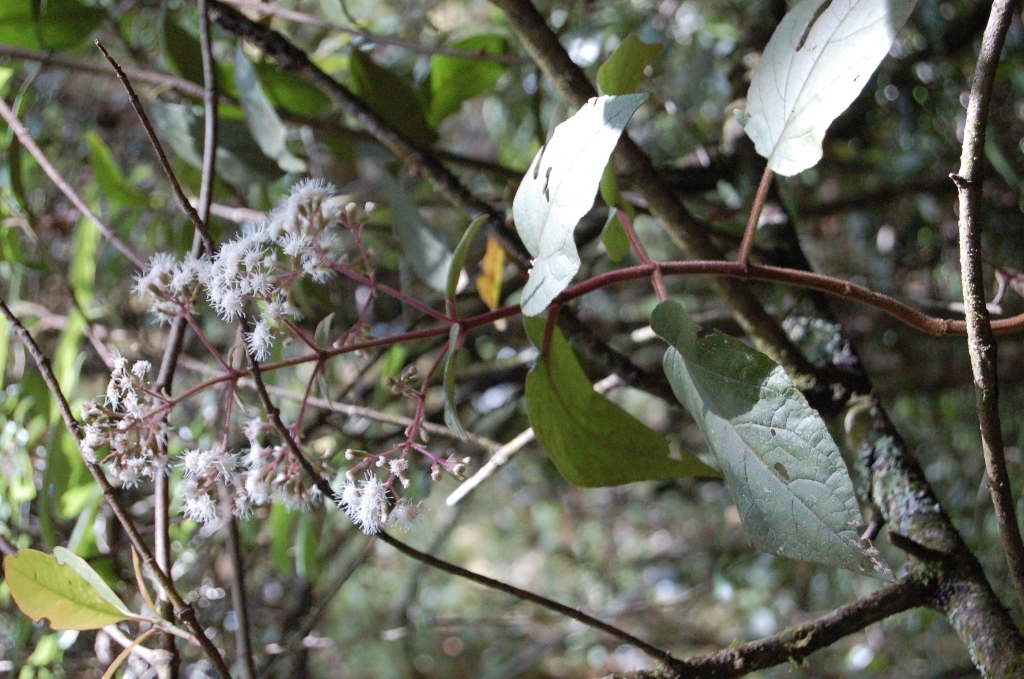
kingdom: Plantae
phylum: Tracheophyta
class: Magnoliopsida
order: Asterales
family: Asteraceae
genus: Bartlettina
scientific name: Bartlettina sordida
